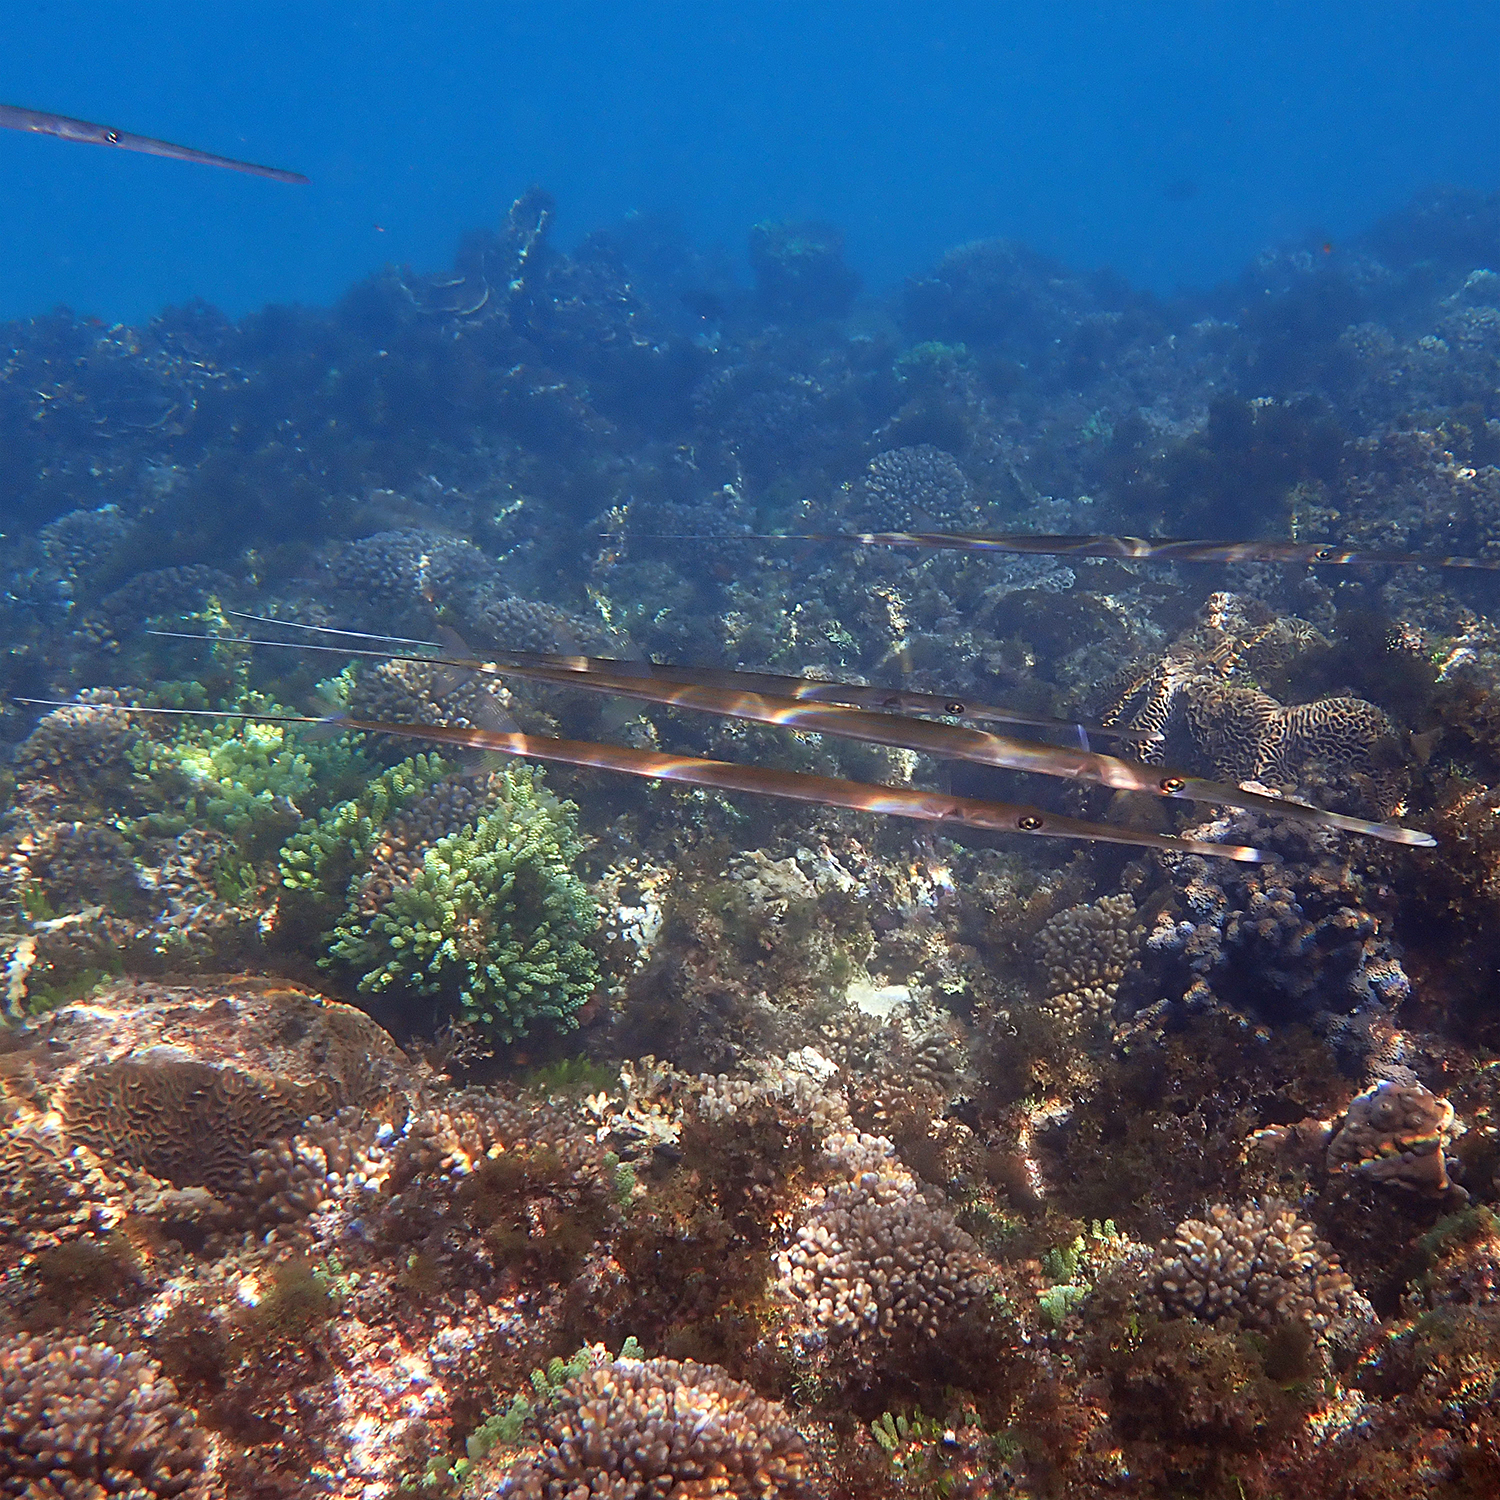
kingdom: Animalia
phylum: Chordata
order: Syngnathiformes
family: Fistulariidae
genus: Fistularia
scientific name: Fistularia commersonii
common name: Bluespotted cornetfish
